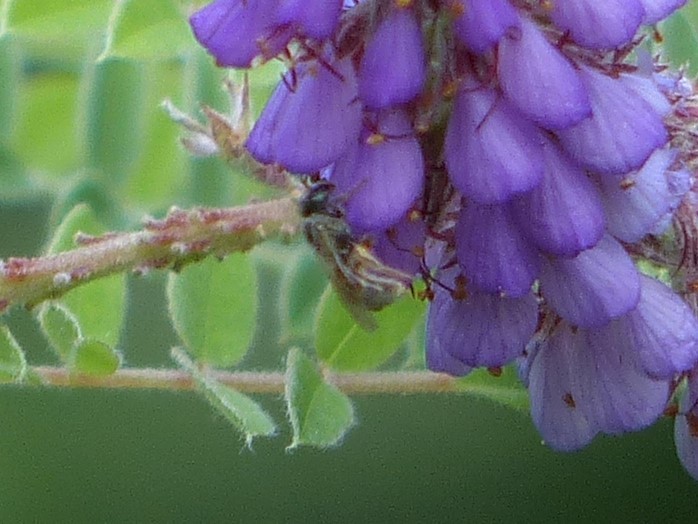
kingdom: Animalia
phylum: Arthropoda
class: Insecta
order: Hymenoptera
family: Halictidae
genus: Dialictus
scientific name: Dialictus
